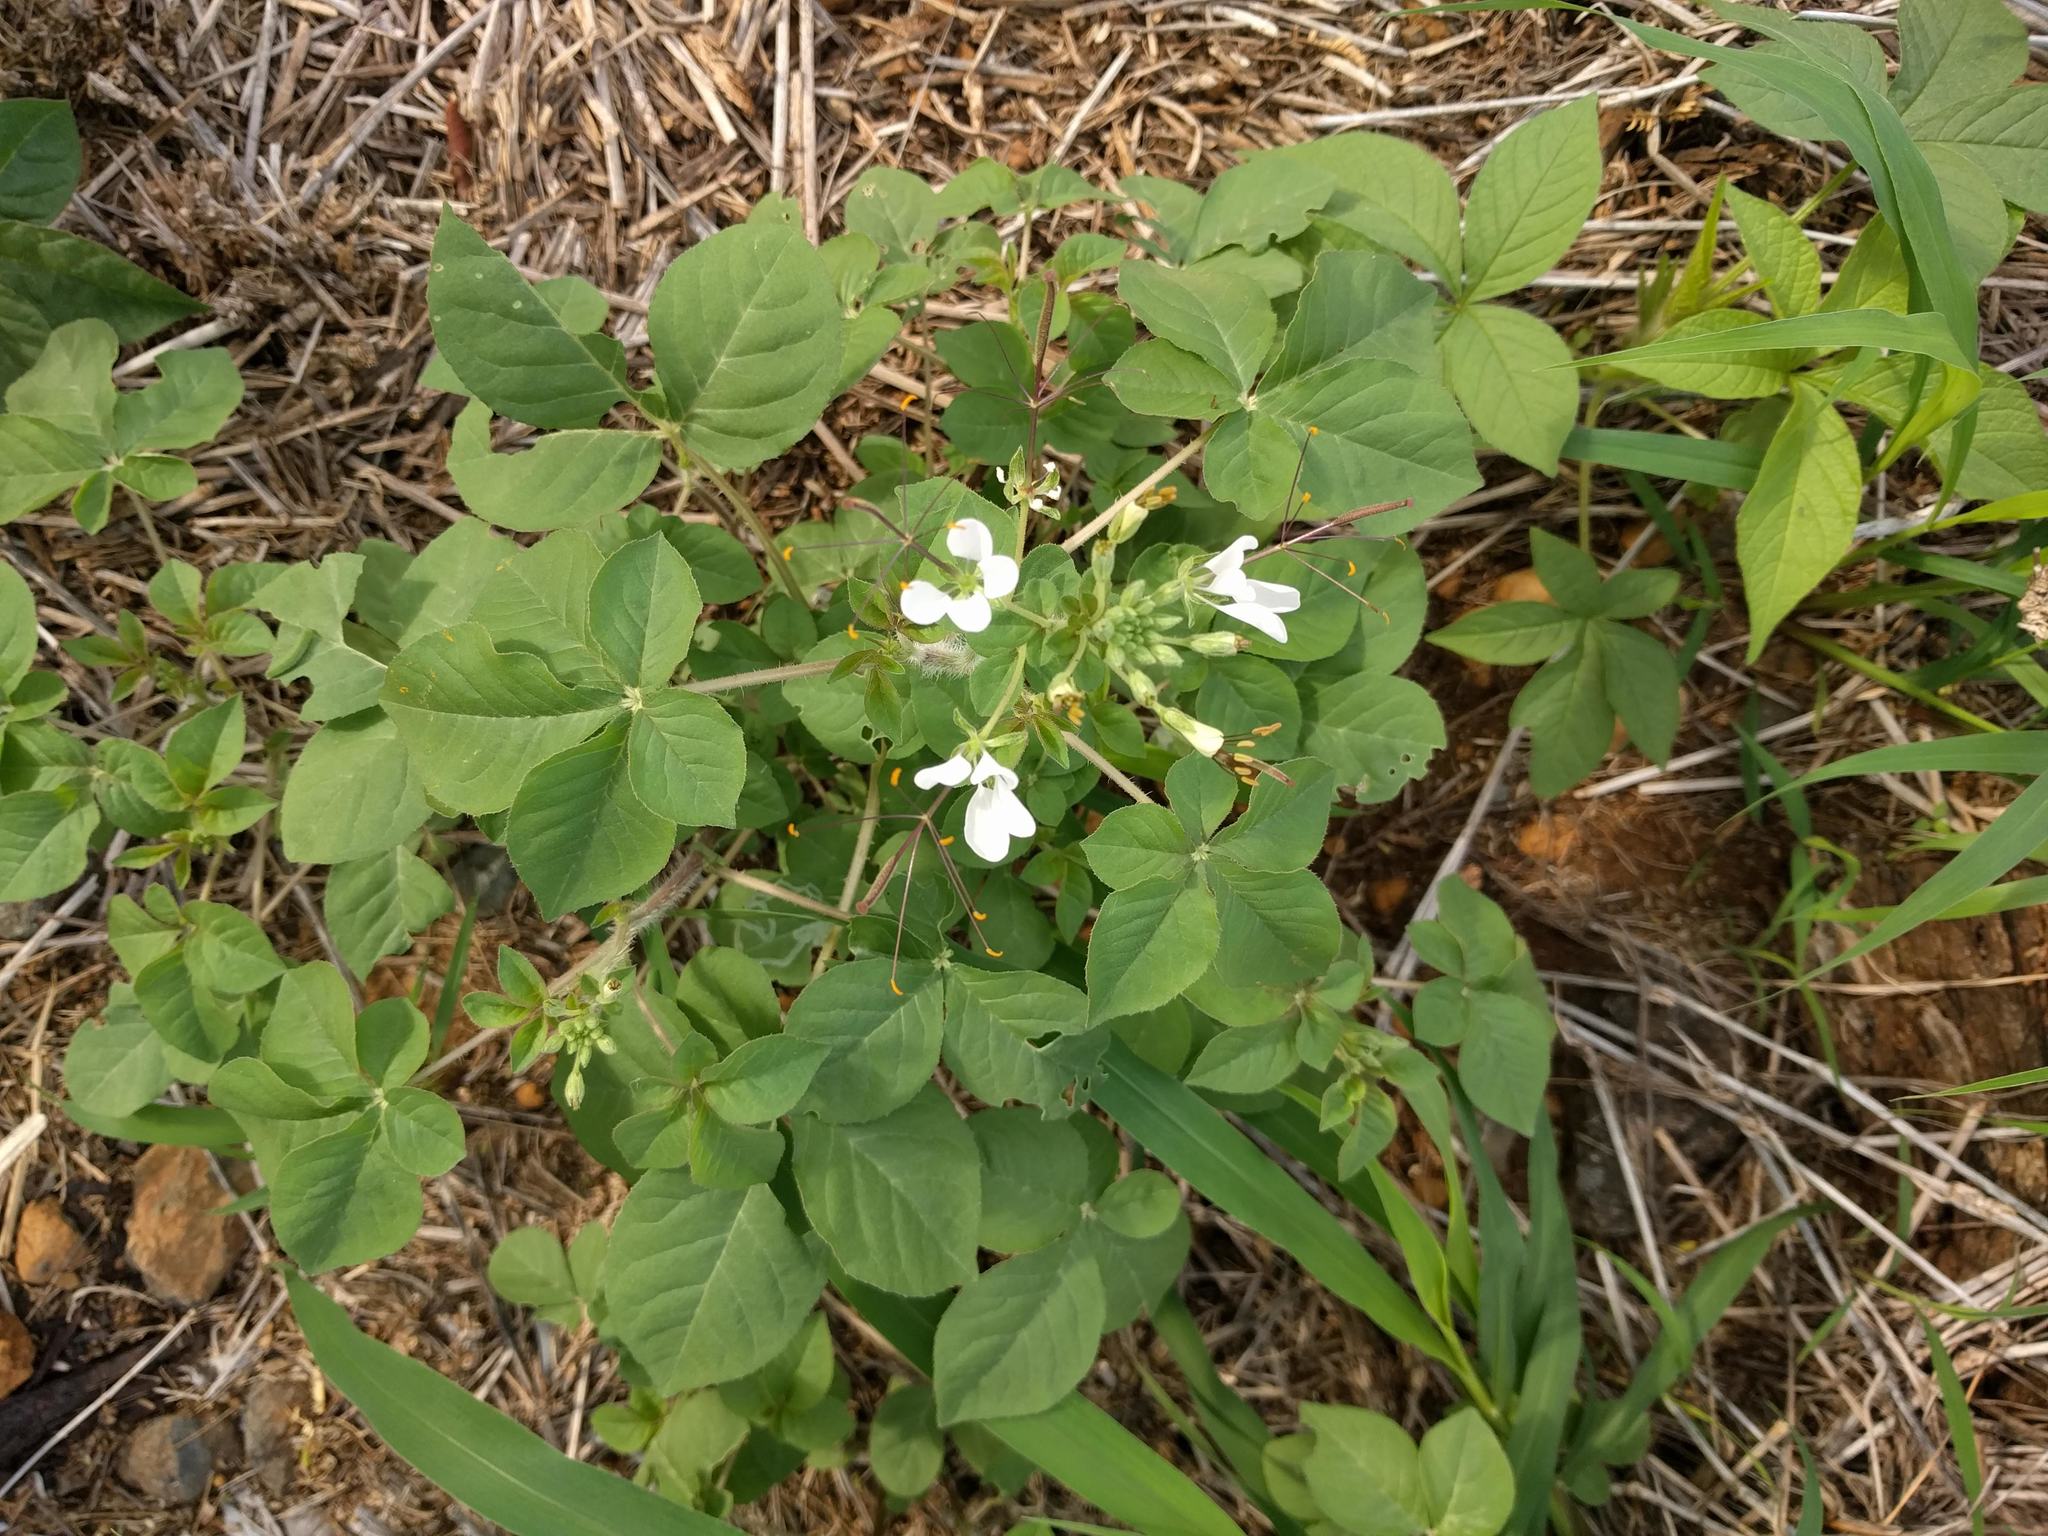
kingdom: Plantae
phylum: Tracheophyta
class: Magnoliopsida
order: Brassicales
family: Cleomaceae
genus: Gynandropsis
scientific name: Gynandropsis gynandra
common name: Spiderwisp
